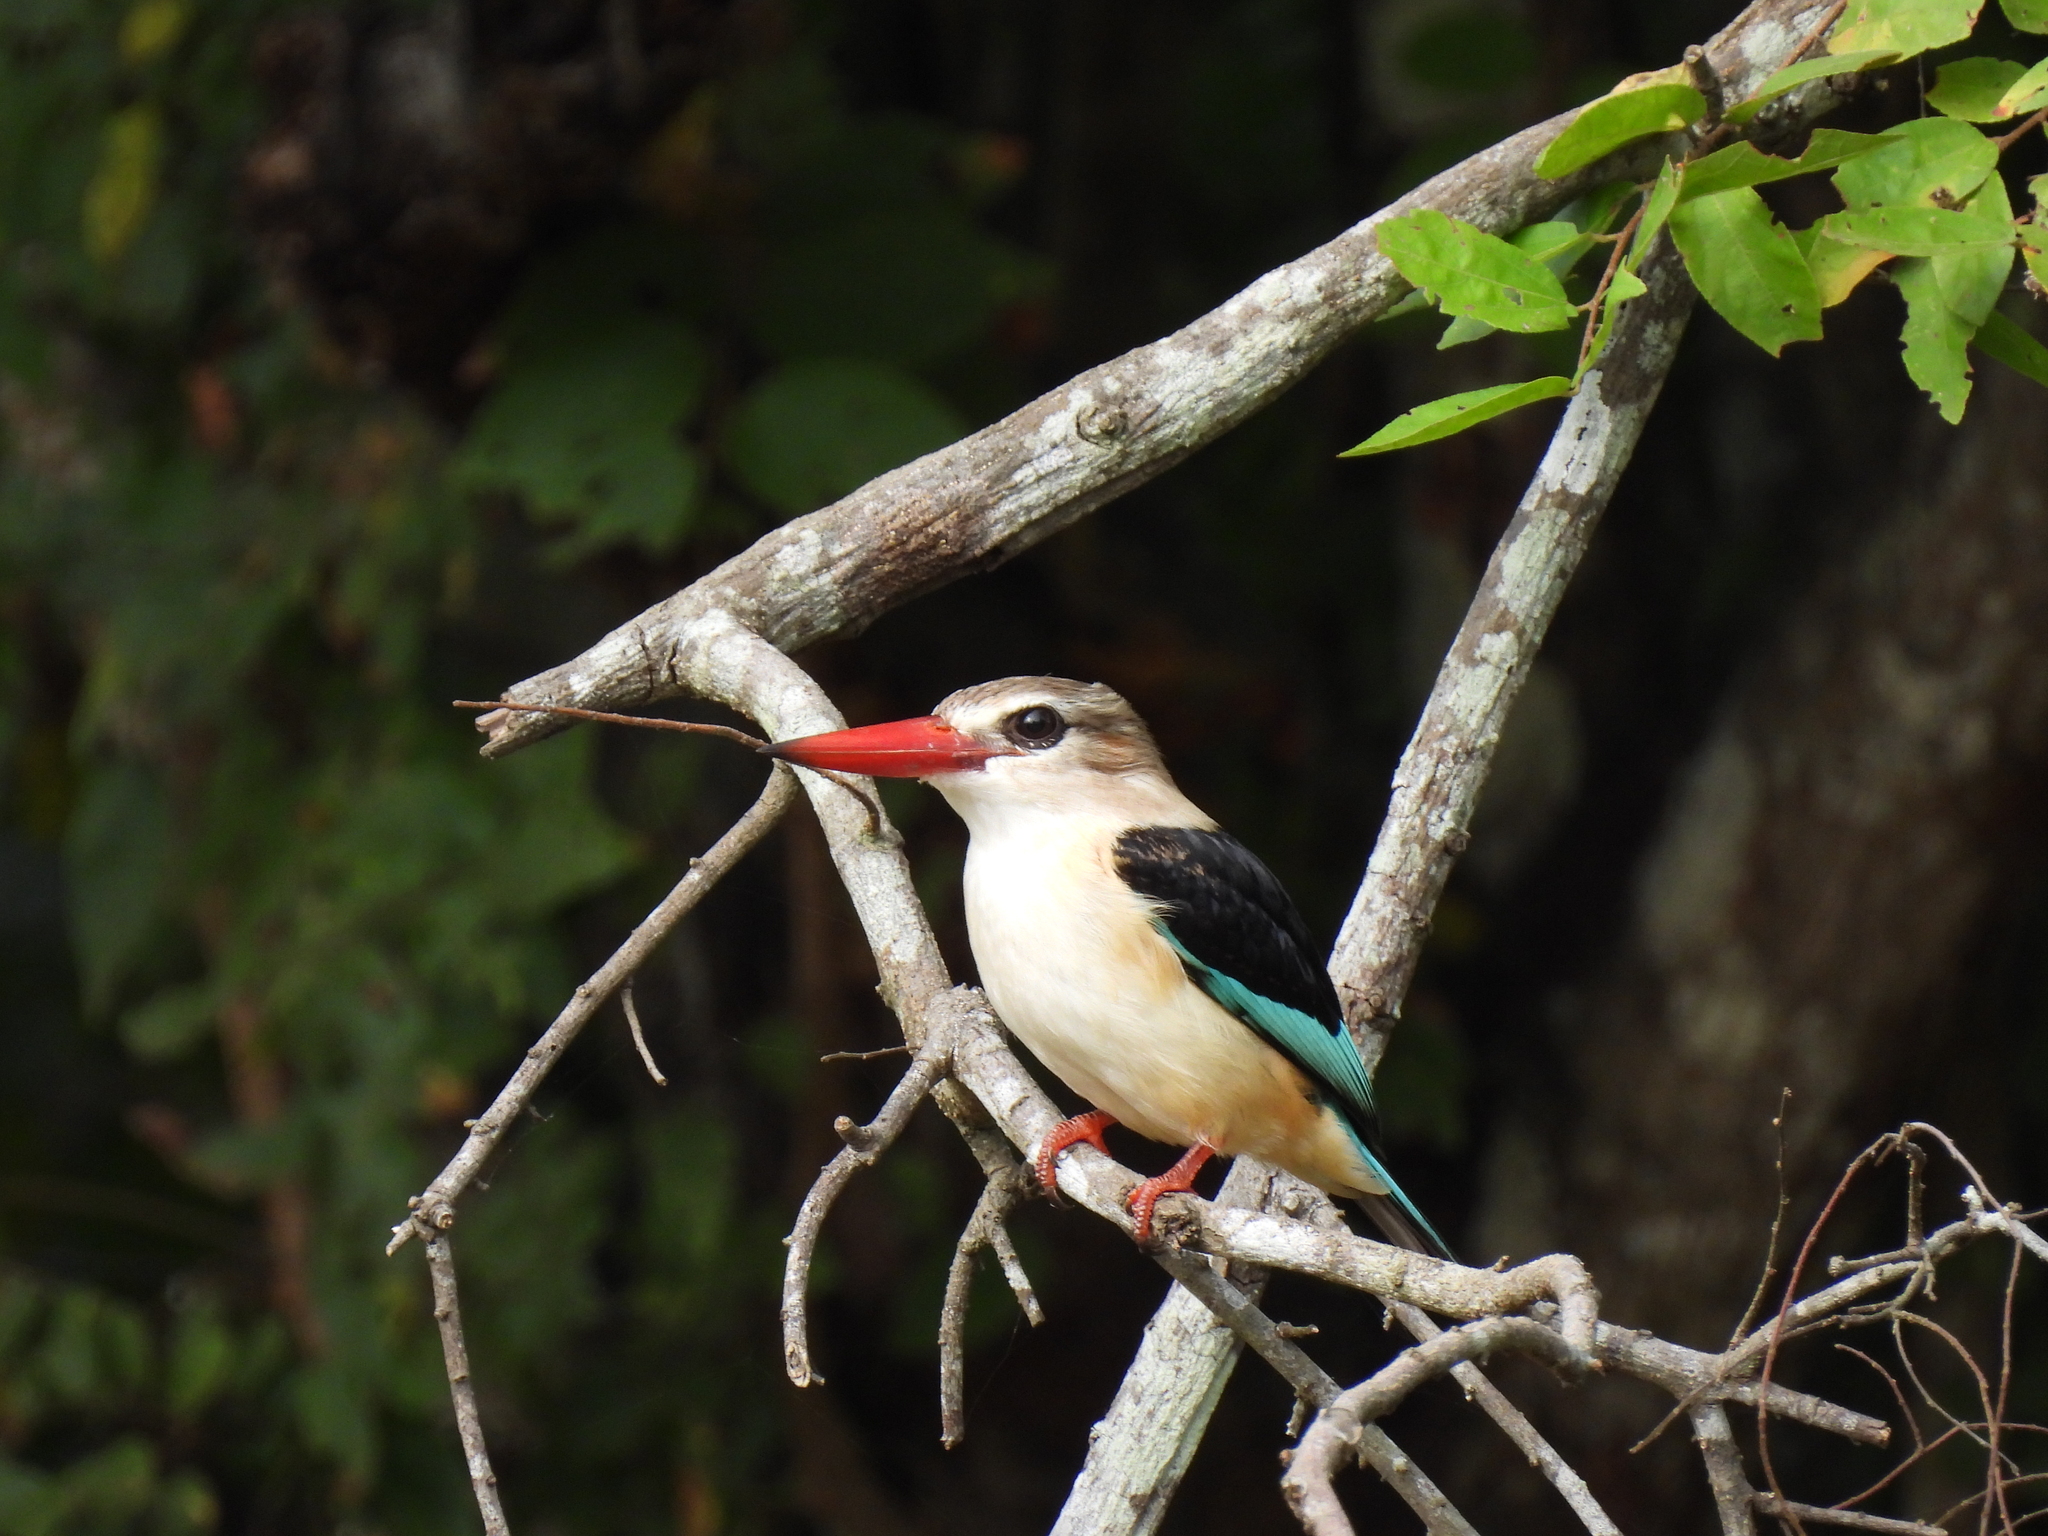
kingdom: Animalia
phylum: Chordata
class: Aves
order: Coraciiformes
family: Alcedinidae
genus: Halcyon
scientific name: Halcyon albiventris
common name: Brown-hooded kingfisher
